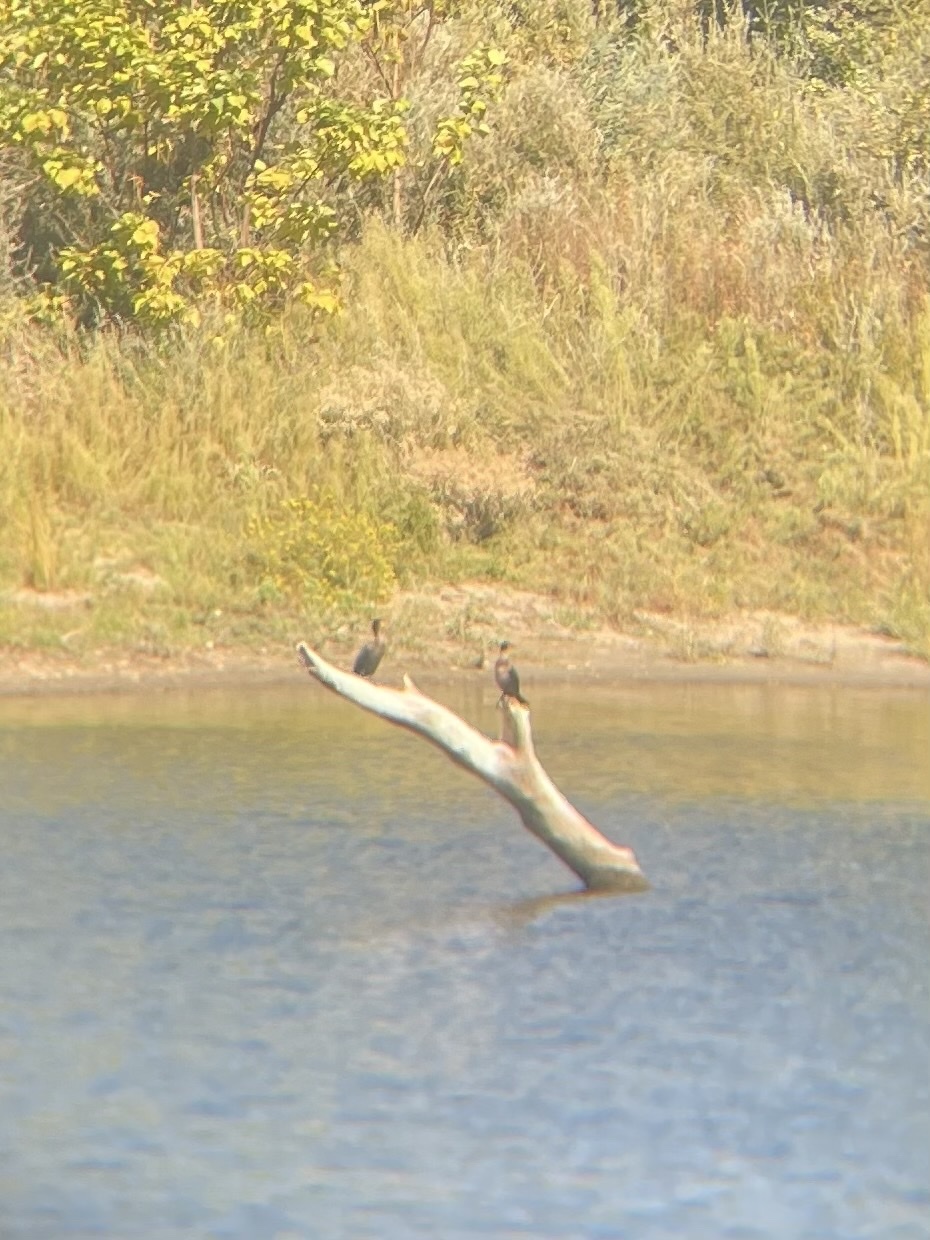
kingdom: Animalia
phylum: Chordata
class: Aves
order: Suliformes
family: Phalacrocoracidae
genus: Phalacrocorax
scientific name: Phalacrocorax auritus
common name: Double-crested cormorant
